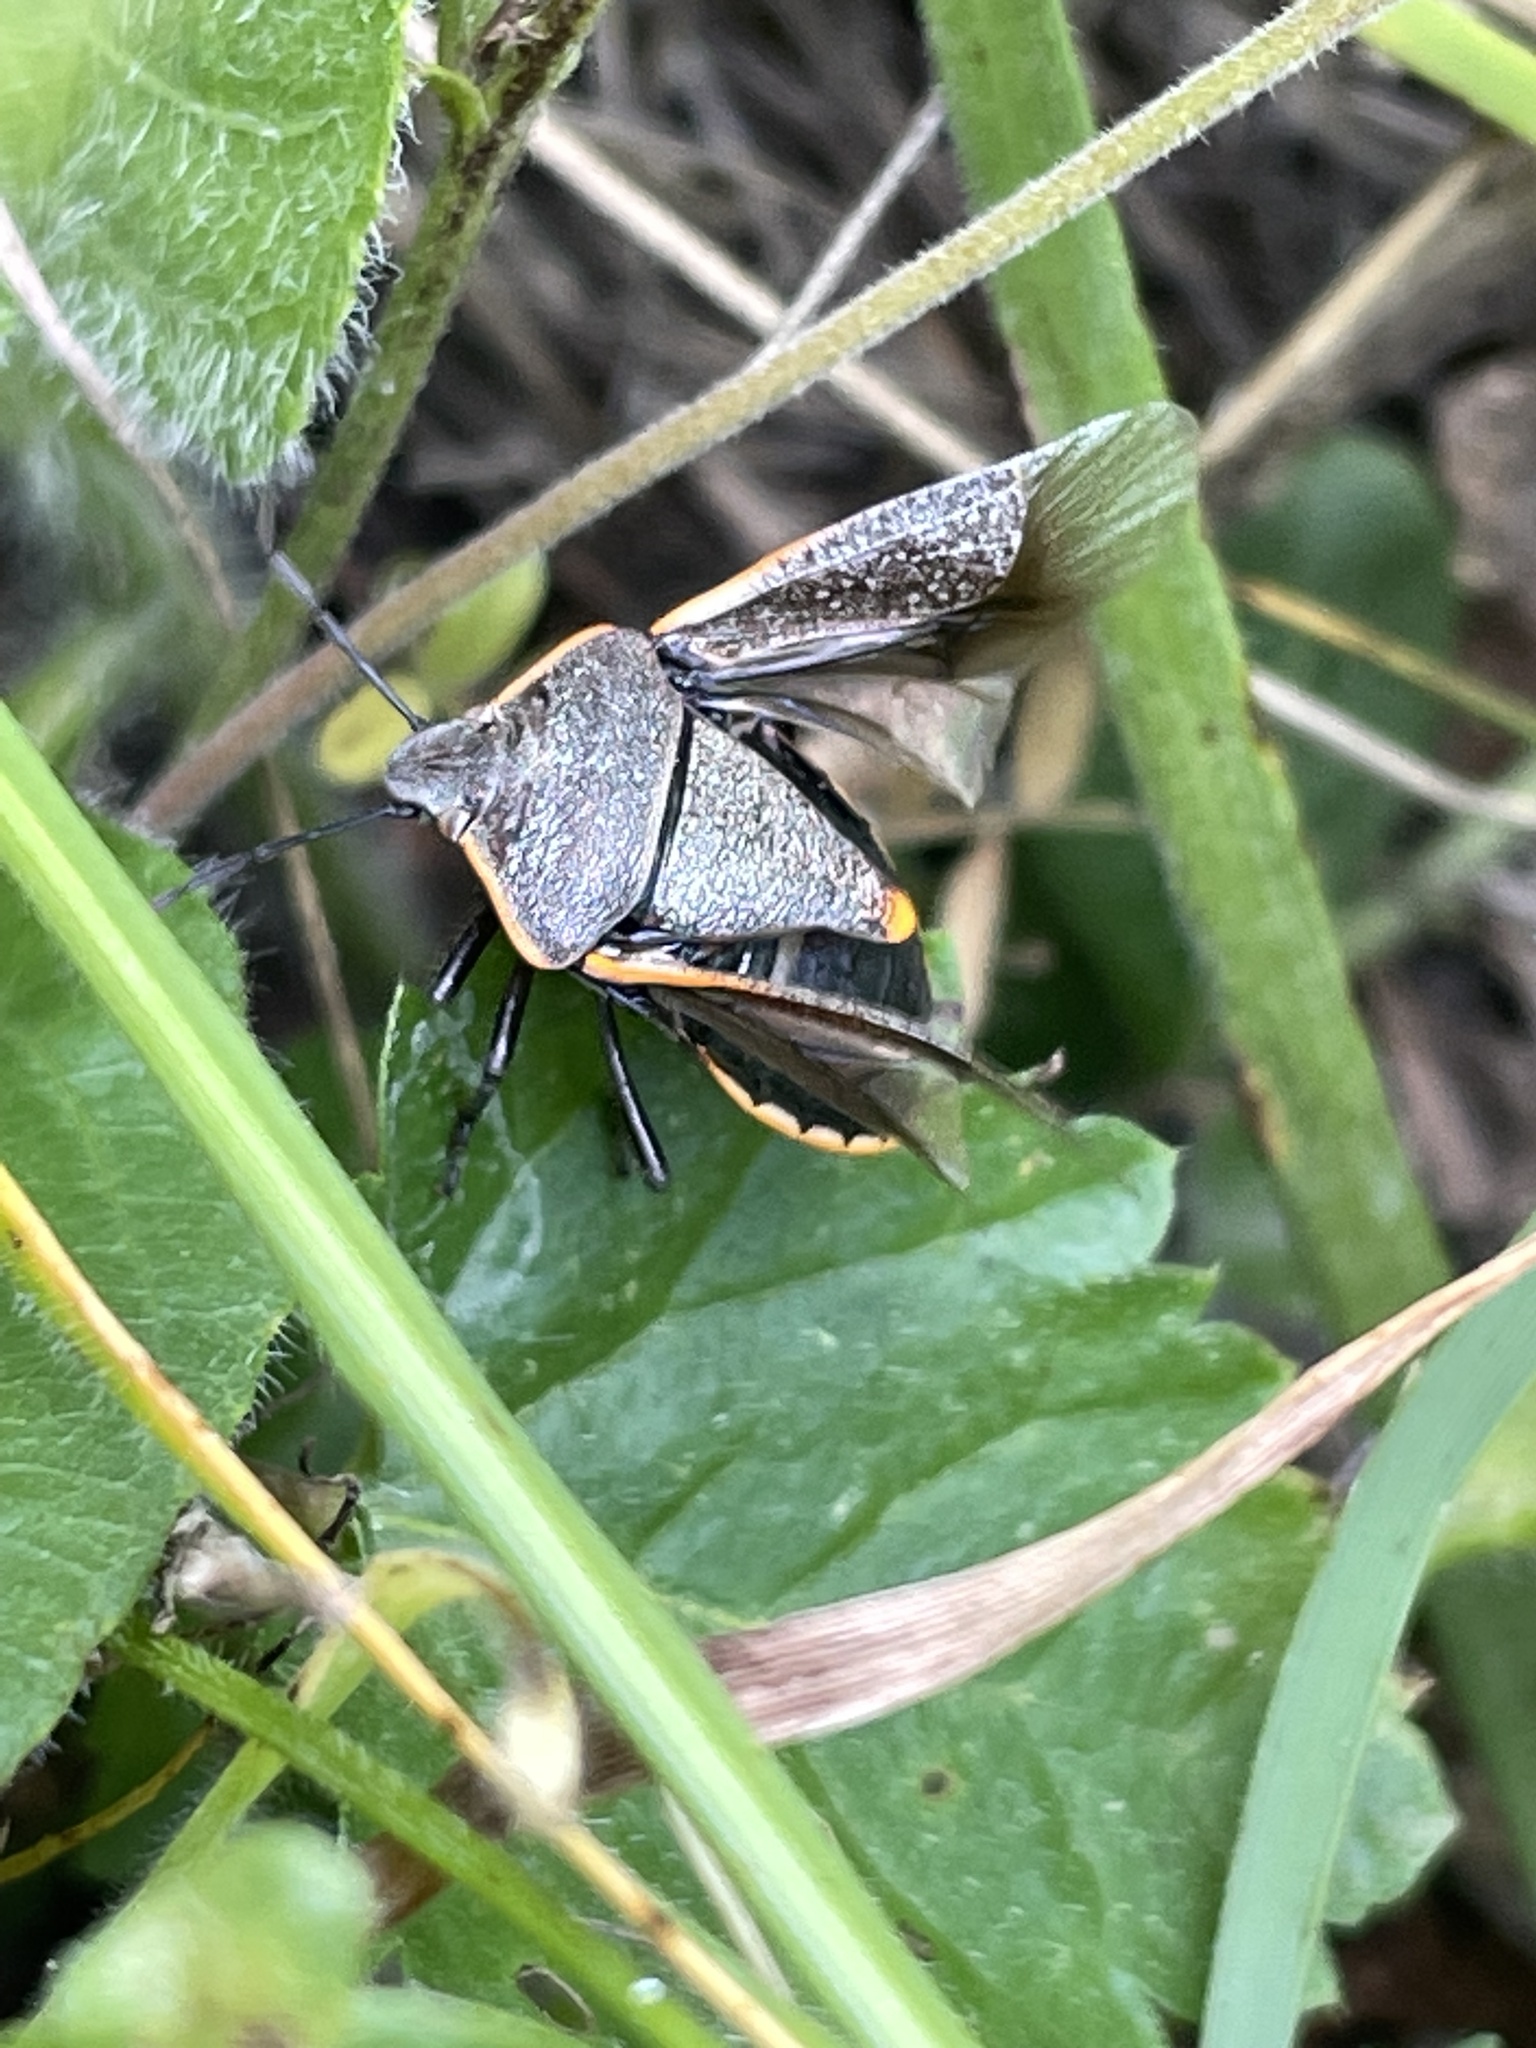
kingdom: Animalia
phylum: Arthropoda
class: Insecta
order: Hemiptera
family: Pentatomidae
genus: Chlorochroa
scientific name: Chlorochroa ligata
